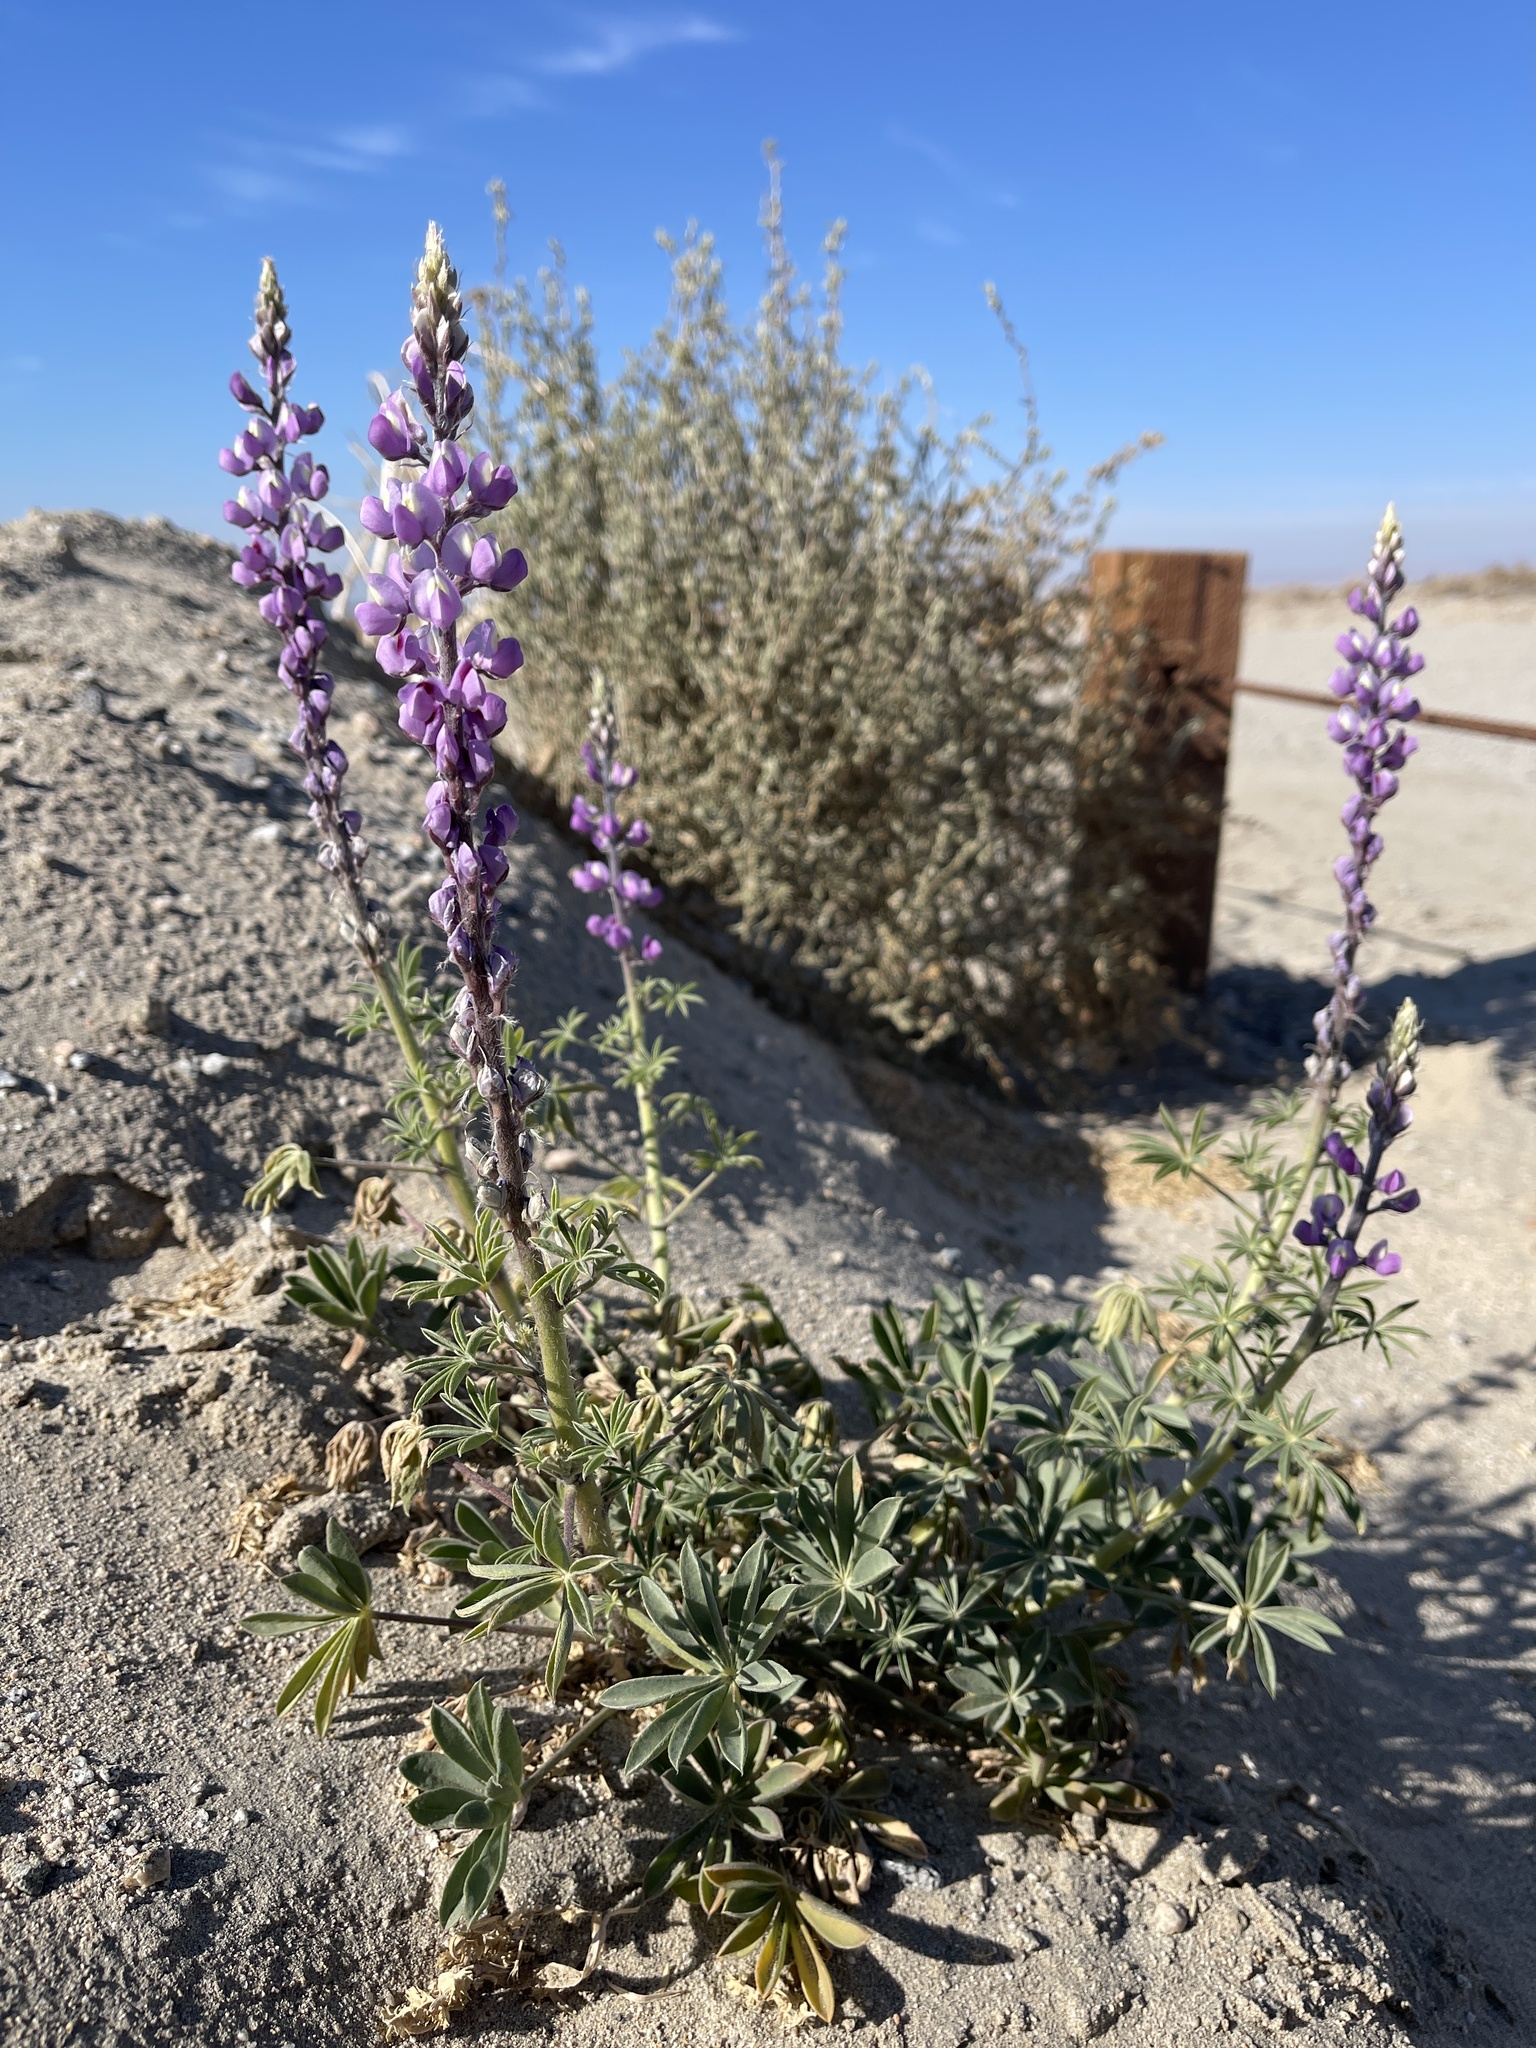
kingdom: Plantae
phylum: Tracheophyta
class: Magnoliopsida
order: Fabales
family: Fabaceae
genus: Lupinus
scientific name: Lupinus arizonicus
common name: Arizona lupine
